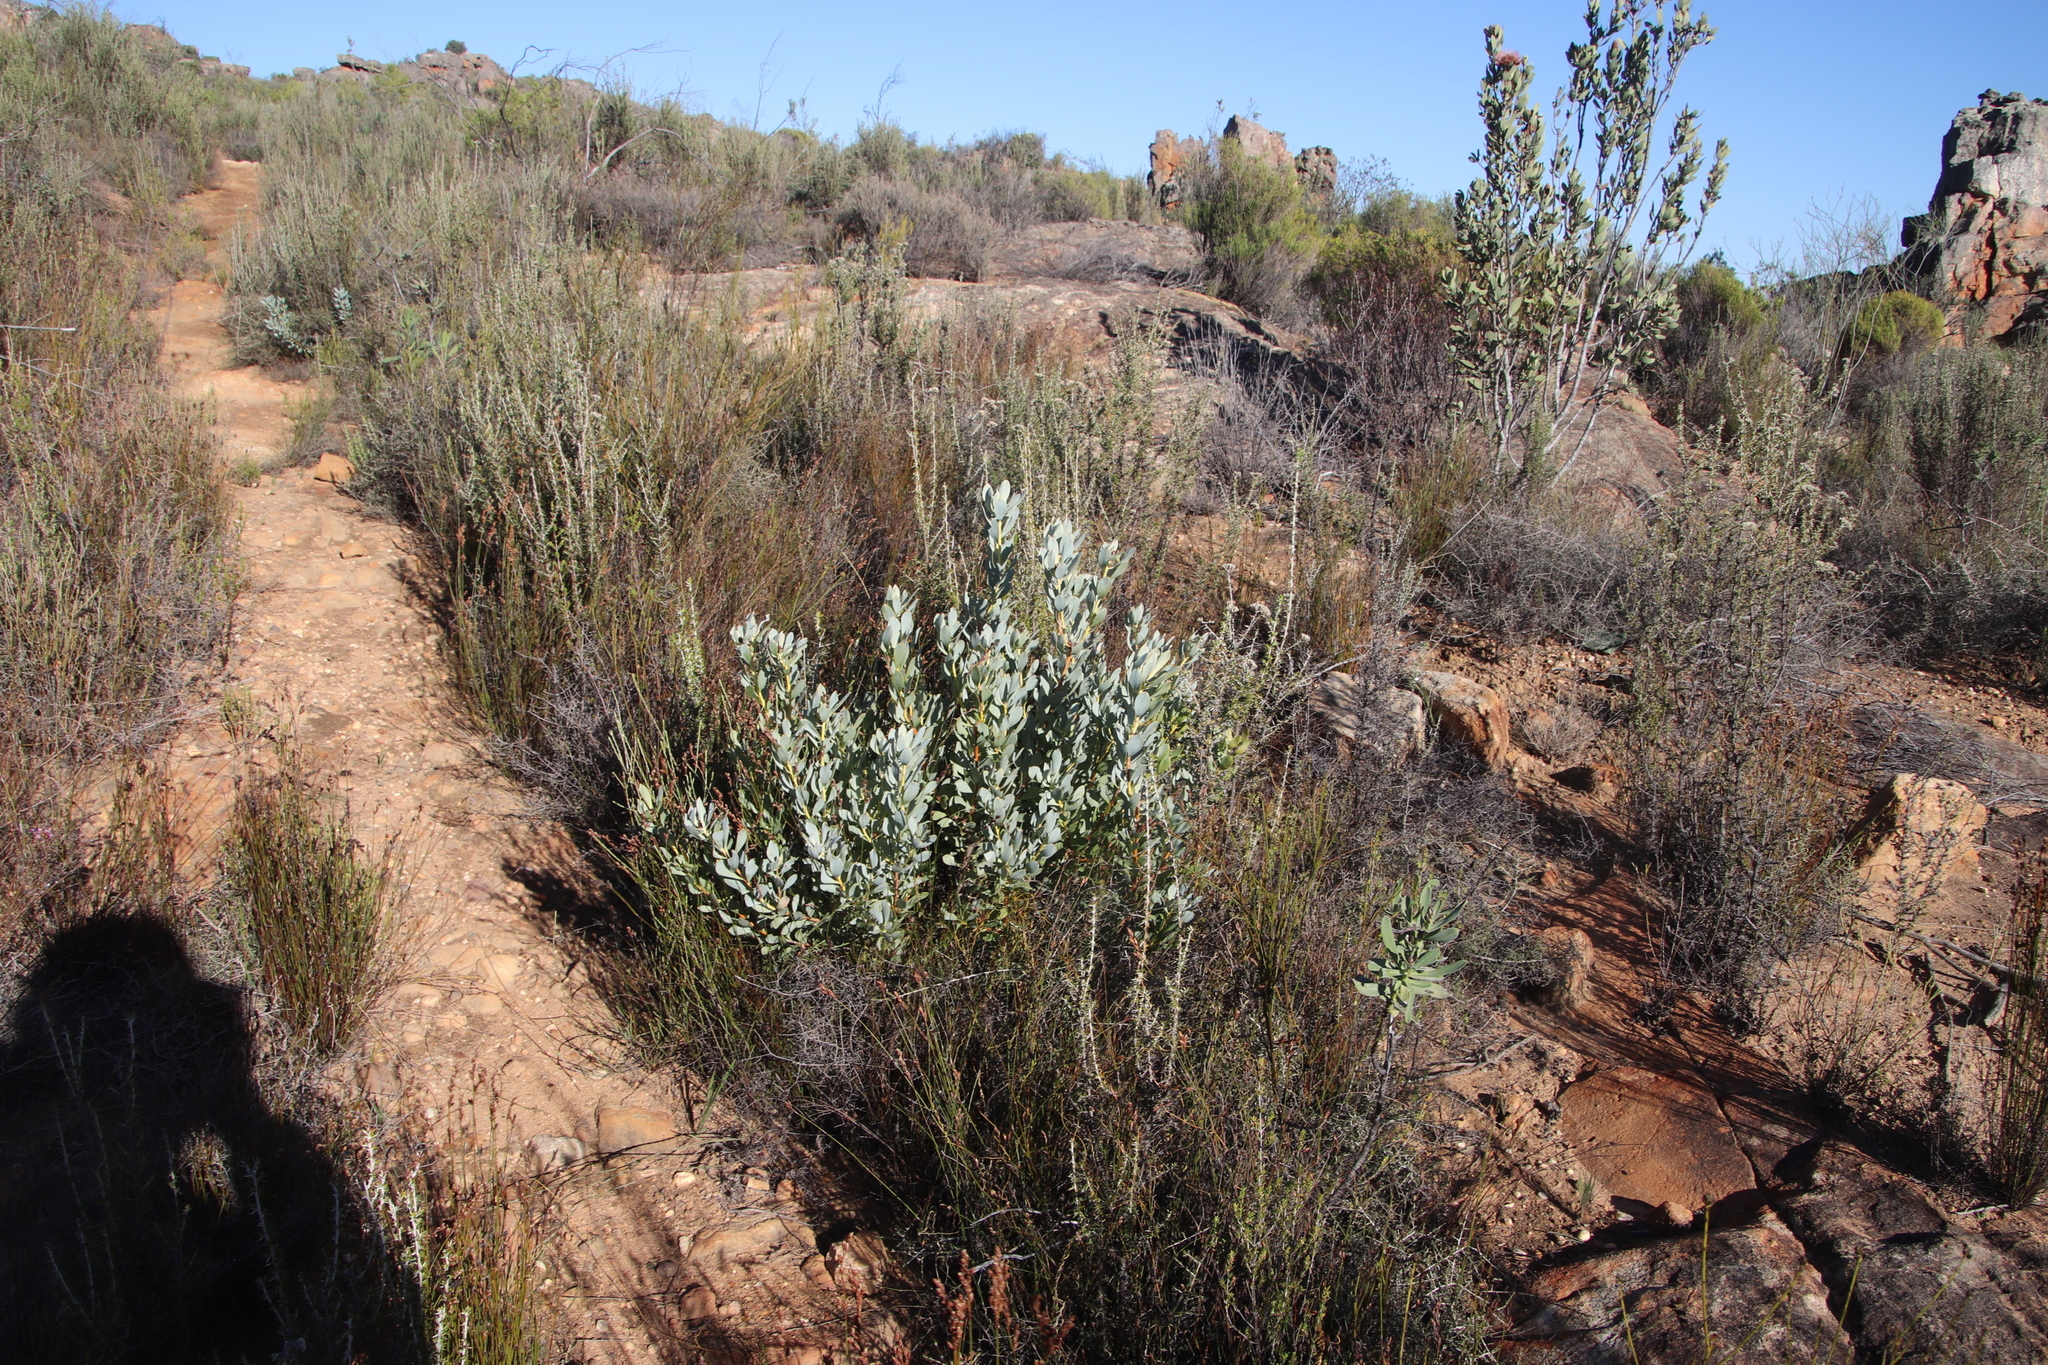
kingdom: Plantae
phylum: Tracheophyta
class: Magnoliopsida
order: Proteales
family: Proteaceae
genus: Leucadendron
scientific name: Leucadendron loranthifolium
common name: Green-flower sunbush
